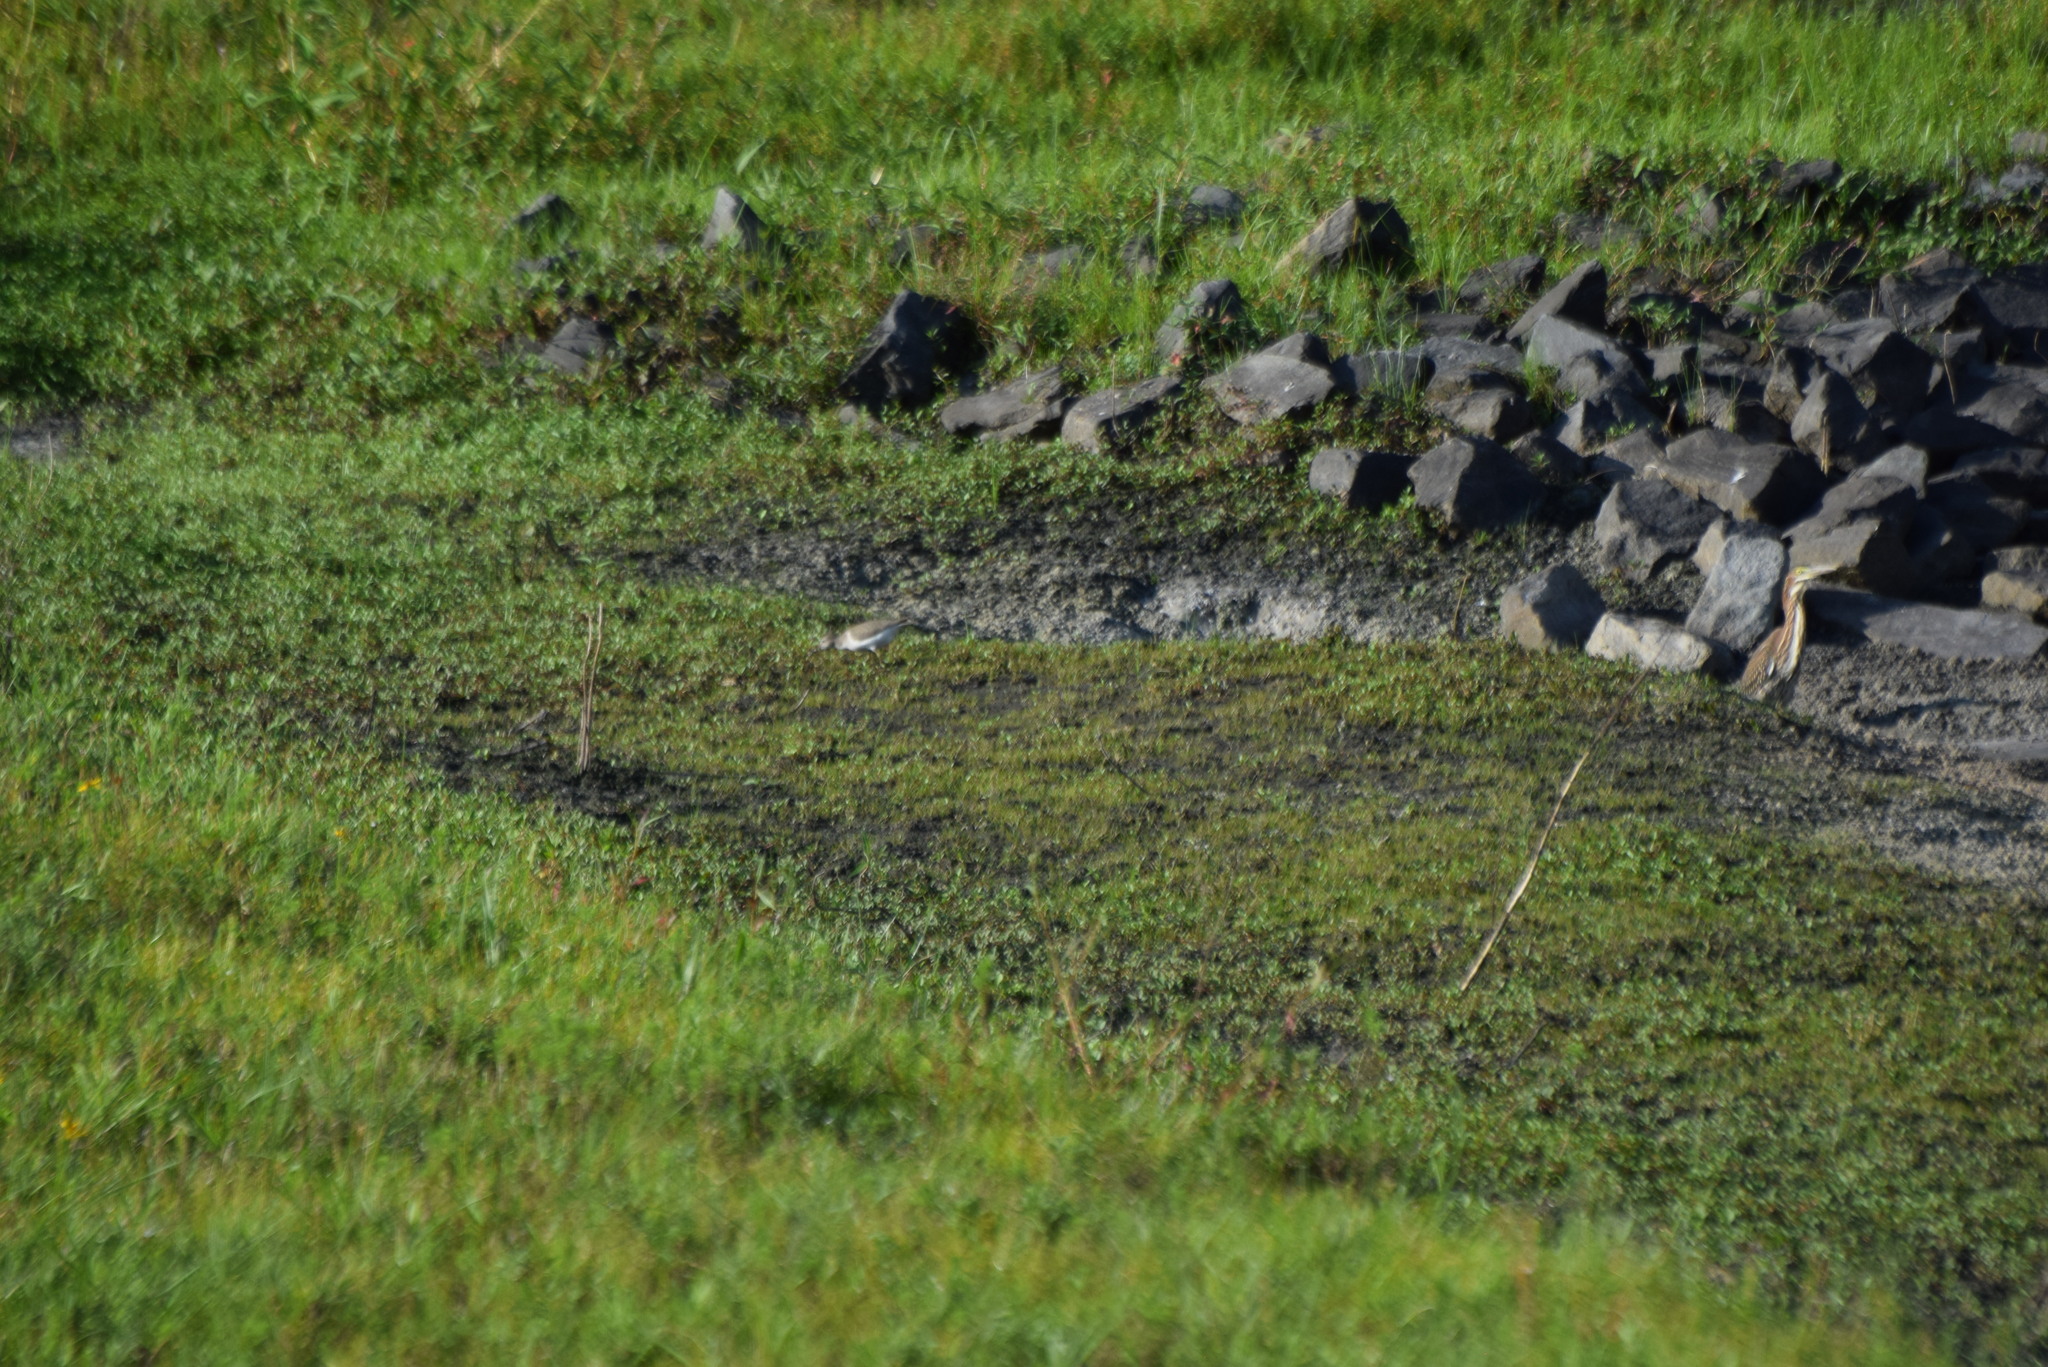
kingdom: Animalia
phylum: Chordata
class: Aves
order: Pelecaniformes
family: Ardeidae
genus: Butorides
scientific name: Butorides virescens
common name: Green heron
